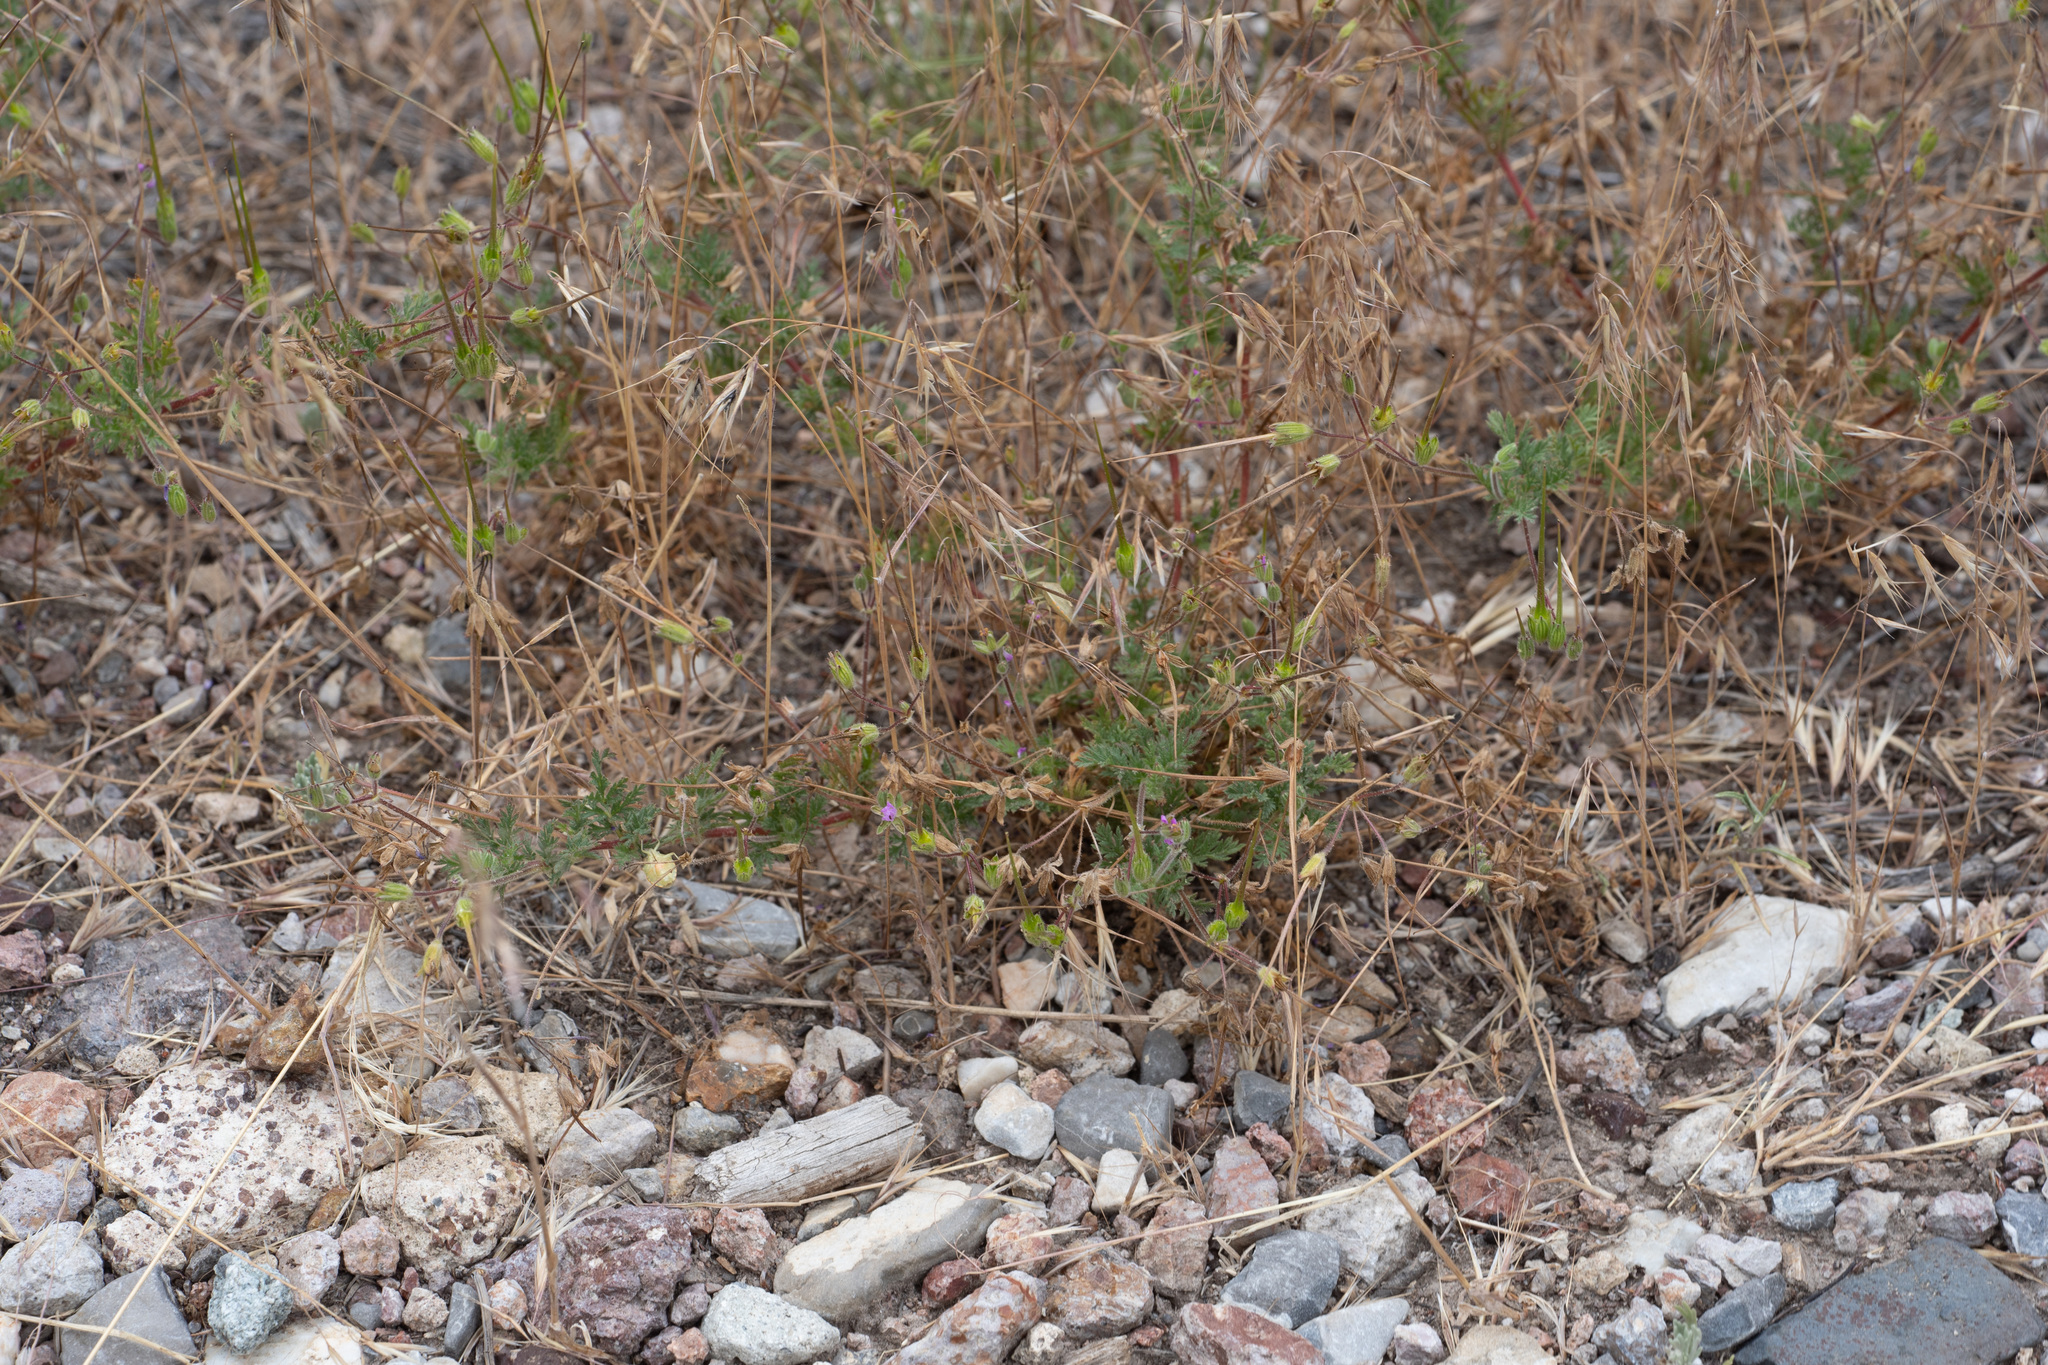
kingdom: Plantae
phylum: Tracheophyta
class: Magnoliopsida
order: Geraniales
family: Geraniaceae
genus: Erodium
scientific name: Erodium cicutarium
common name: Common stork's-bill
